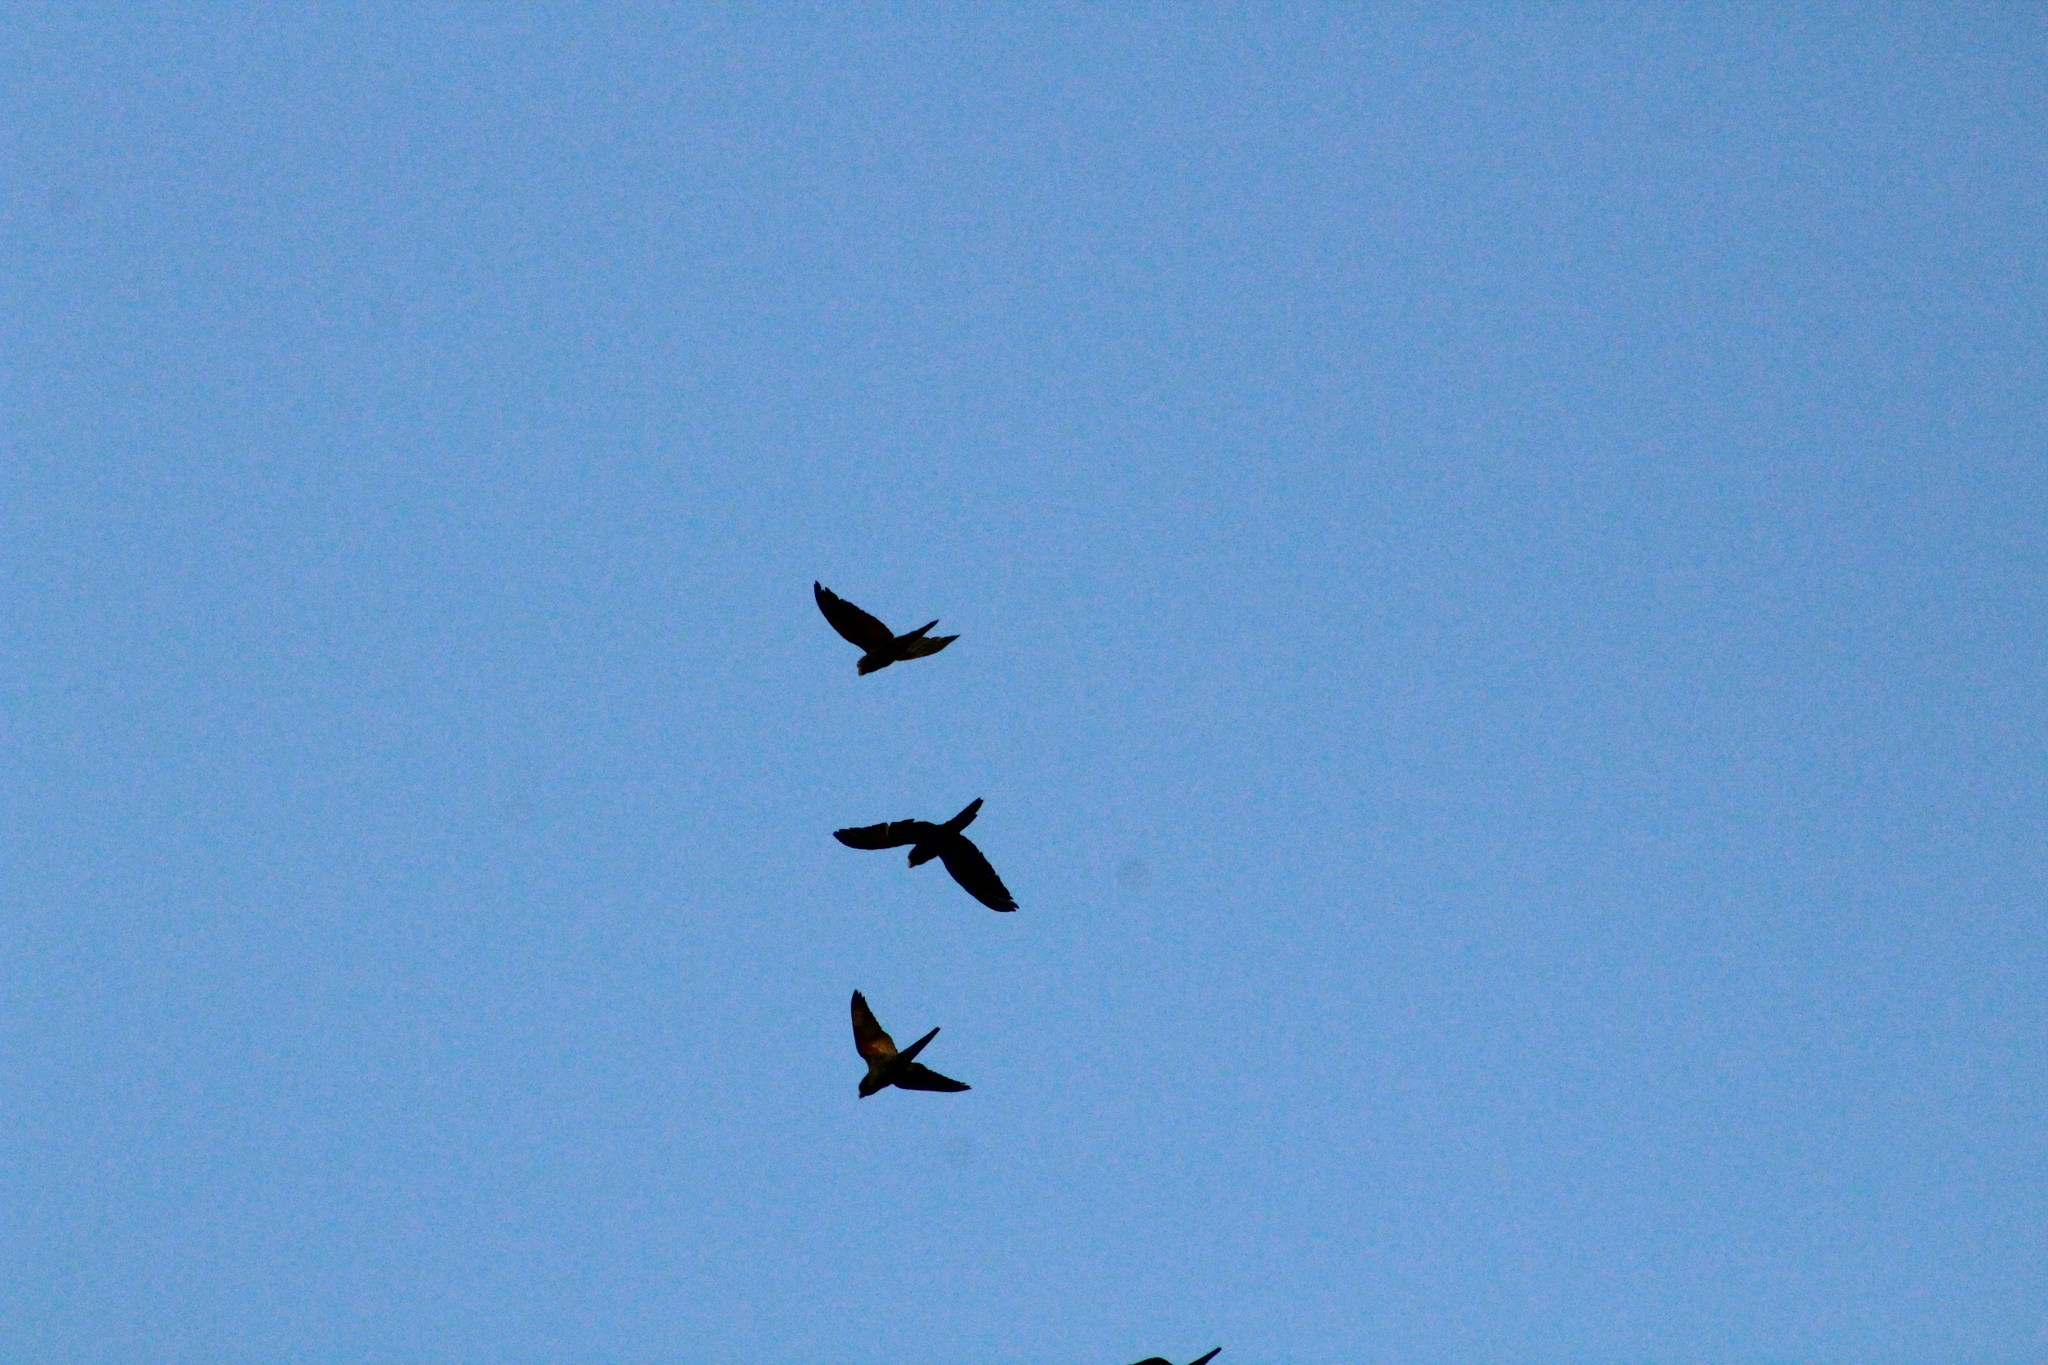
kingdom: Animalia
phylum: Chordata
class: Aves
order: Psittaciformes
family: Psittacidae
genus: Brotogeris
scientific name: Brotogeris versicolurus
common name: White-winged parakeet
